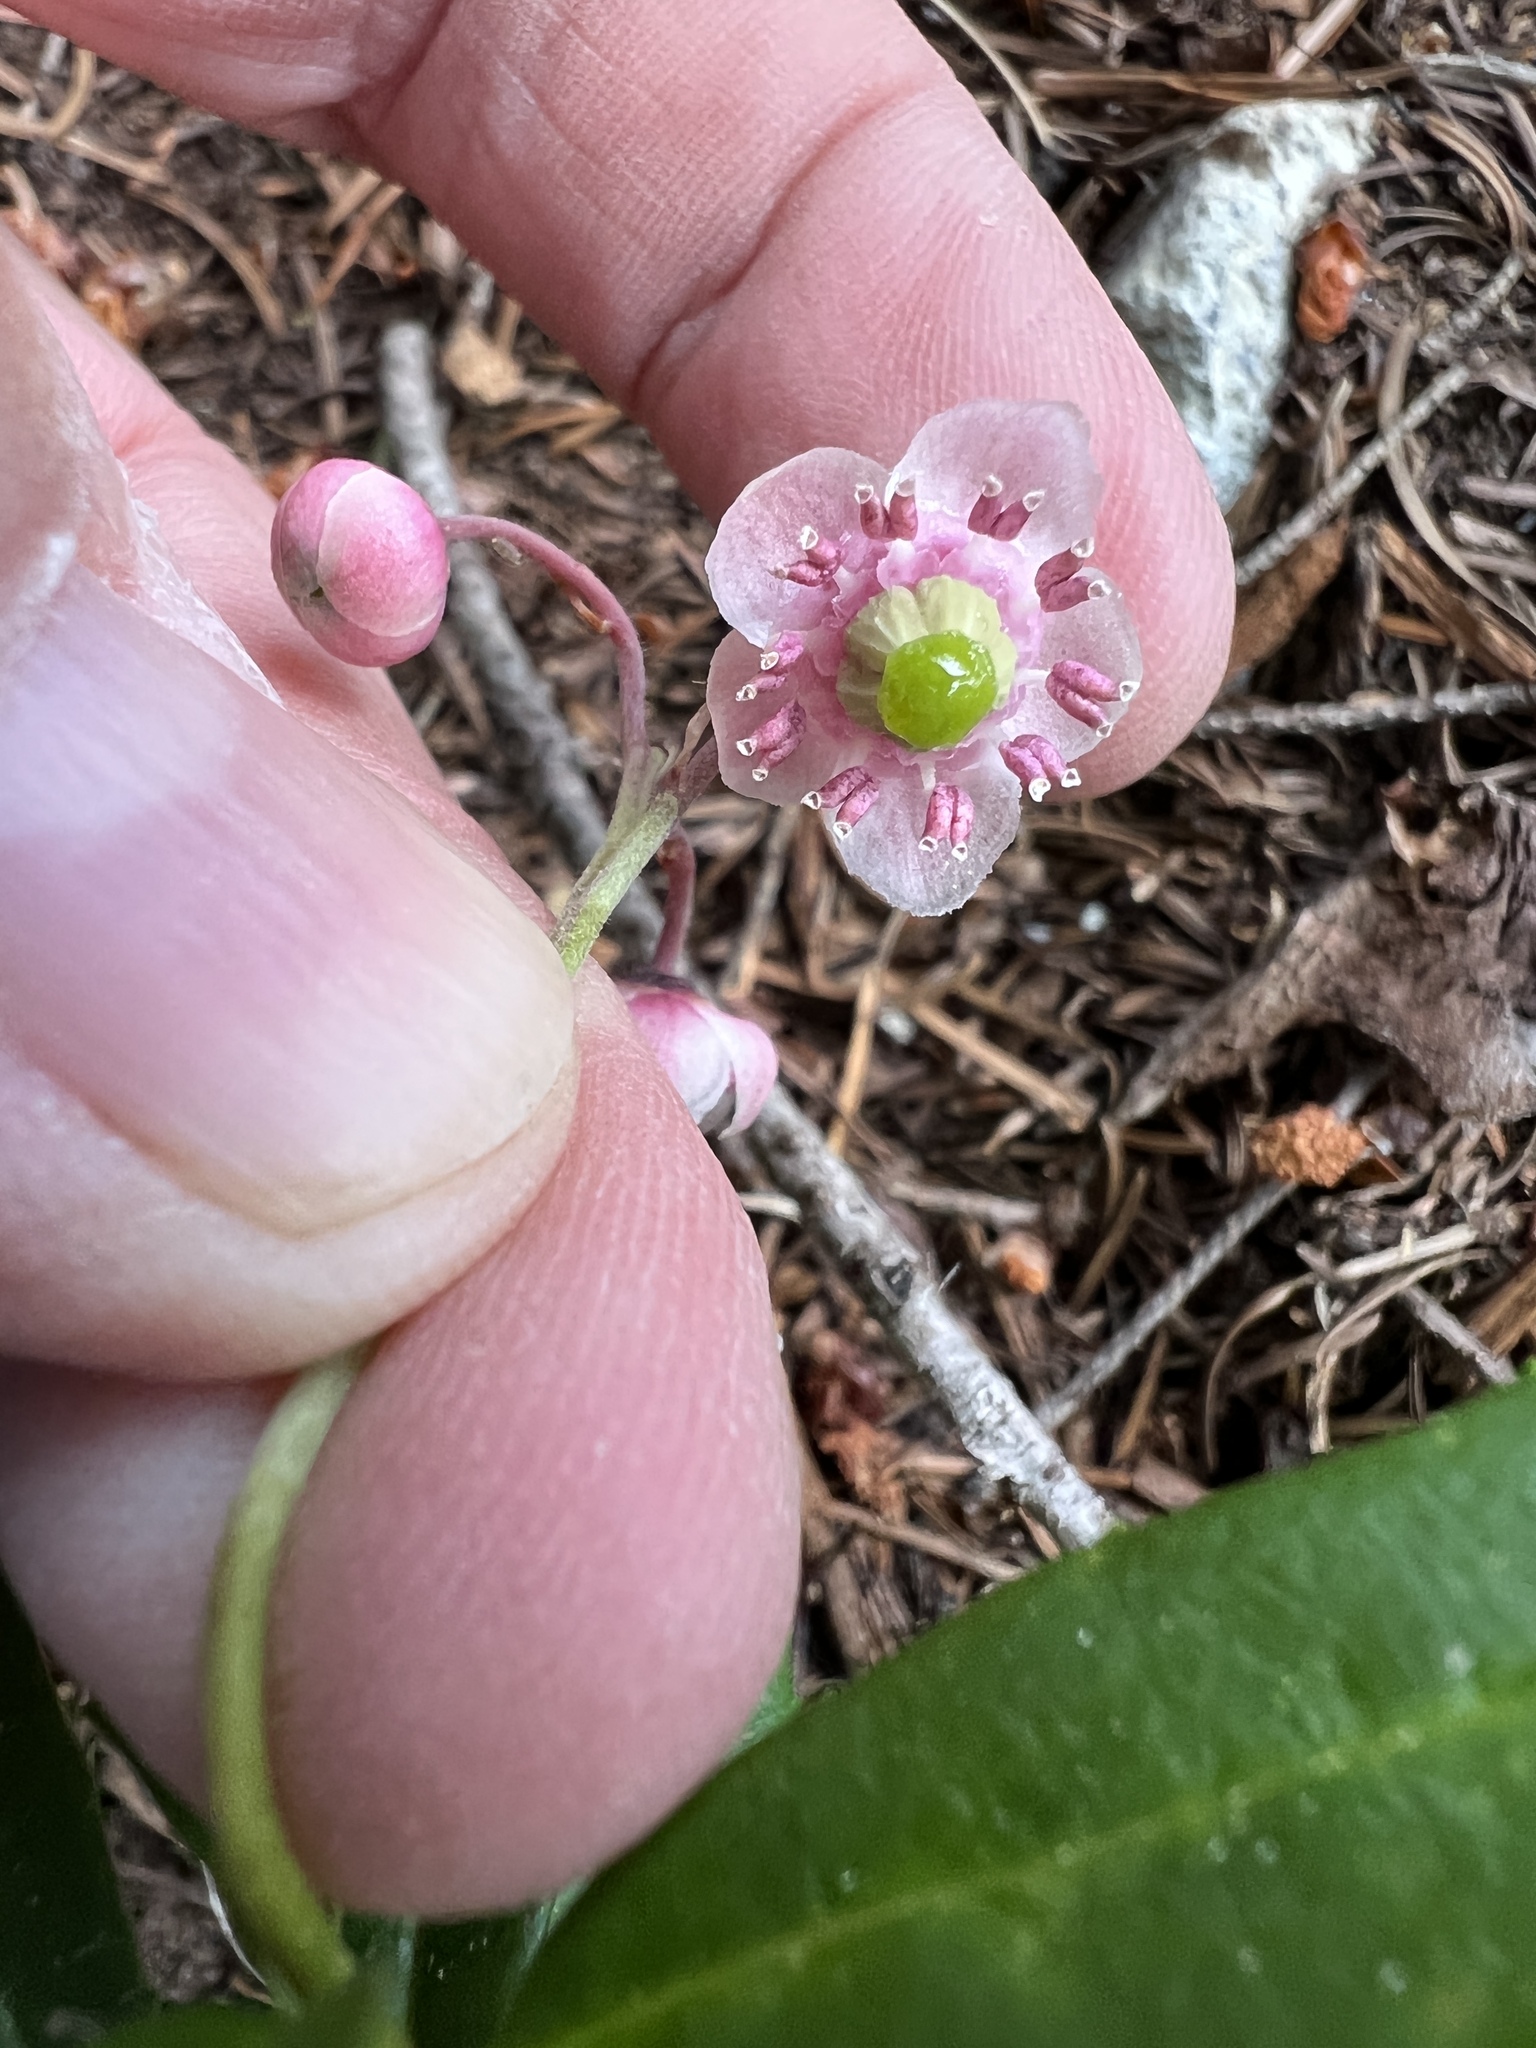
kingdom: Plantae
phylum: Tracheophyta
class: Magnoliopsida
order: Ericales
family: Ericaceae
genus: Chimaphila
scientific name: Chimaphila umbellata
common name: Pipsissewa
